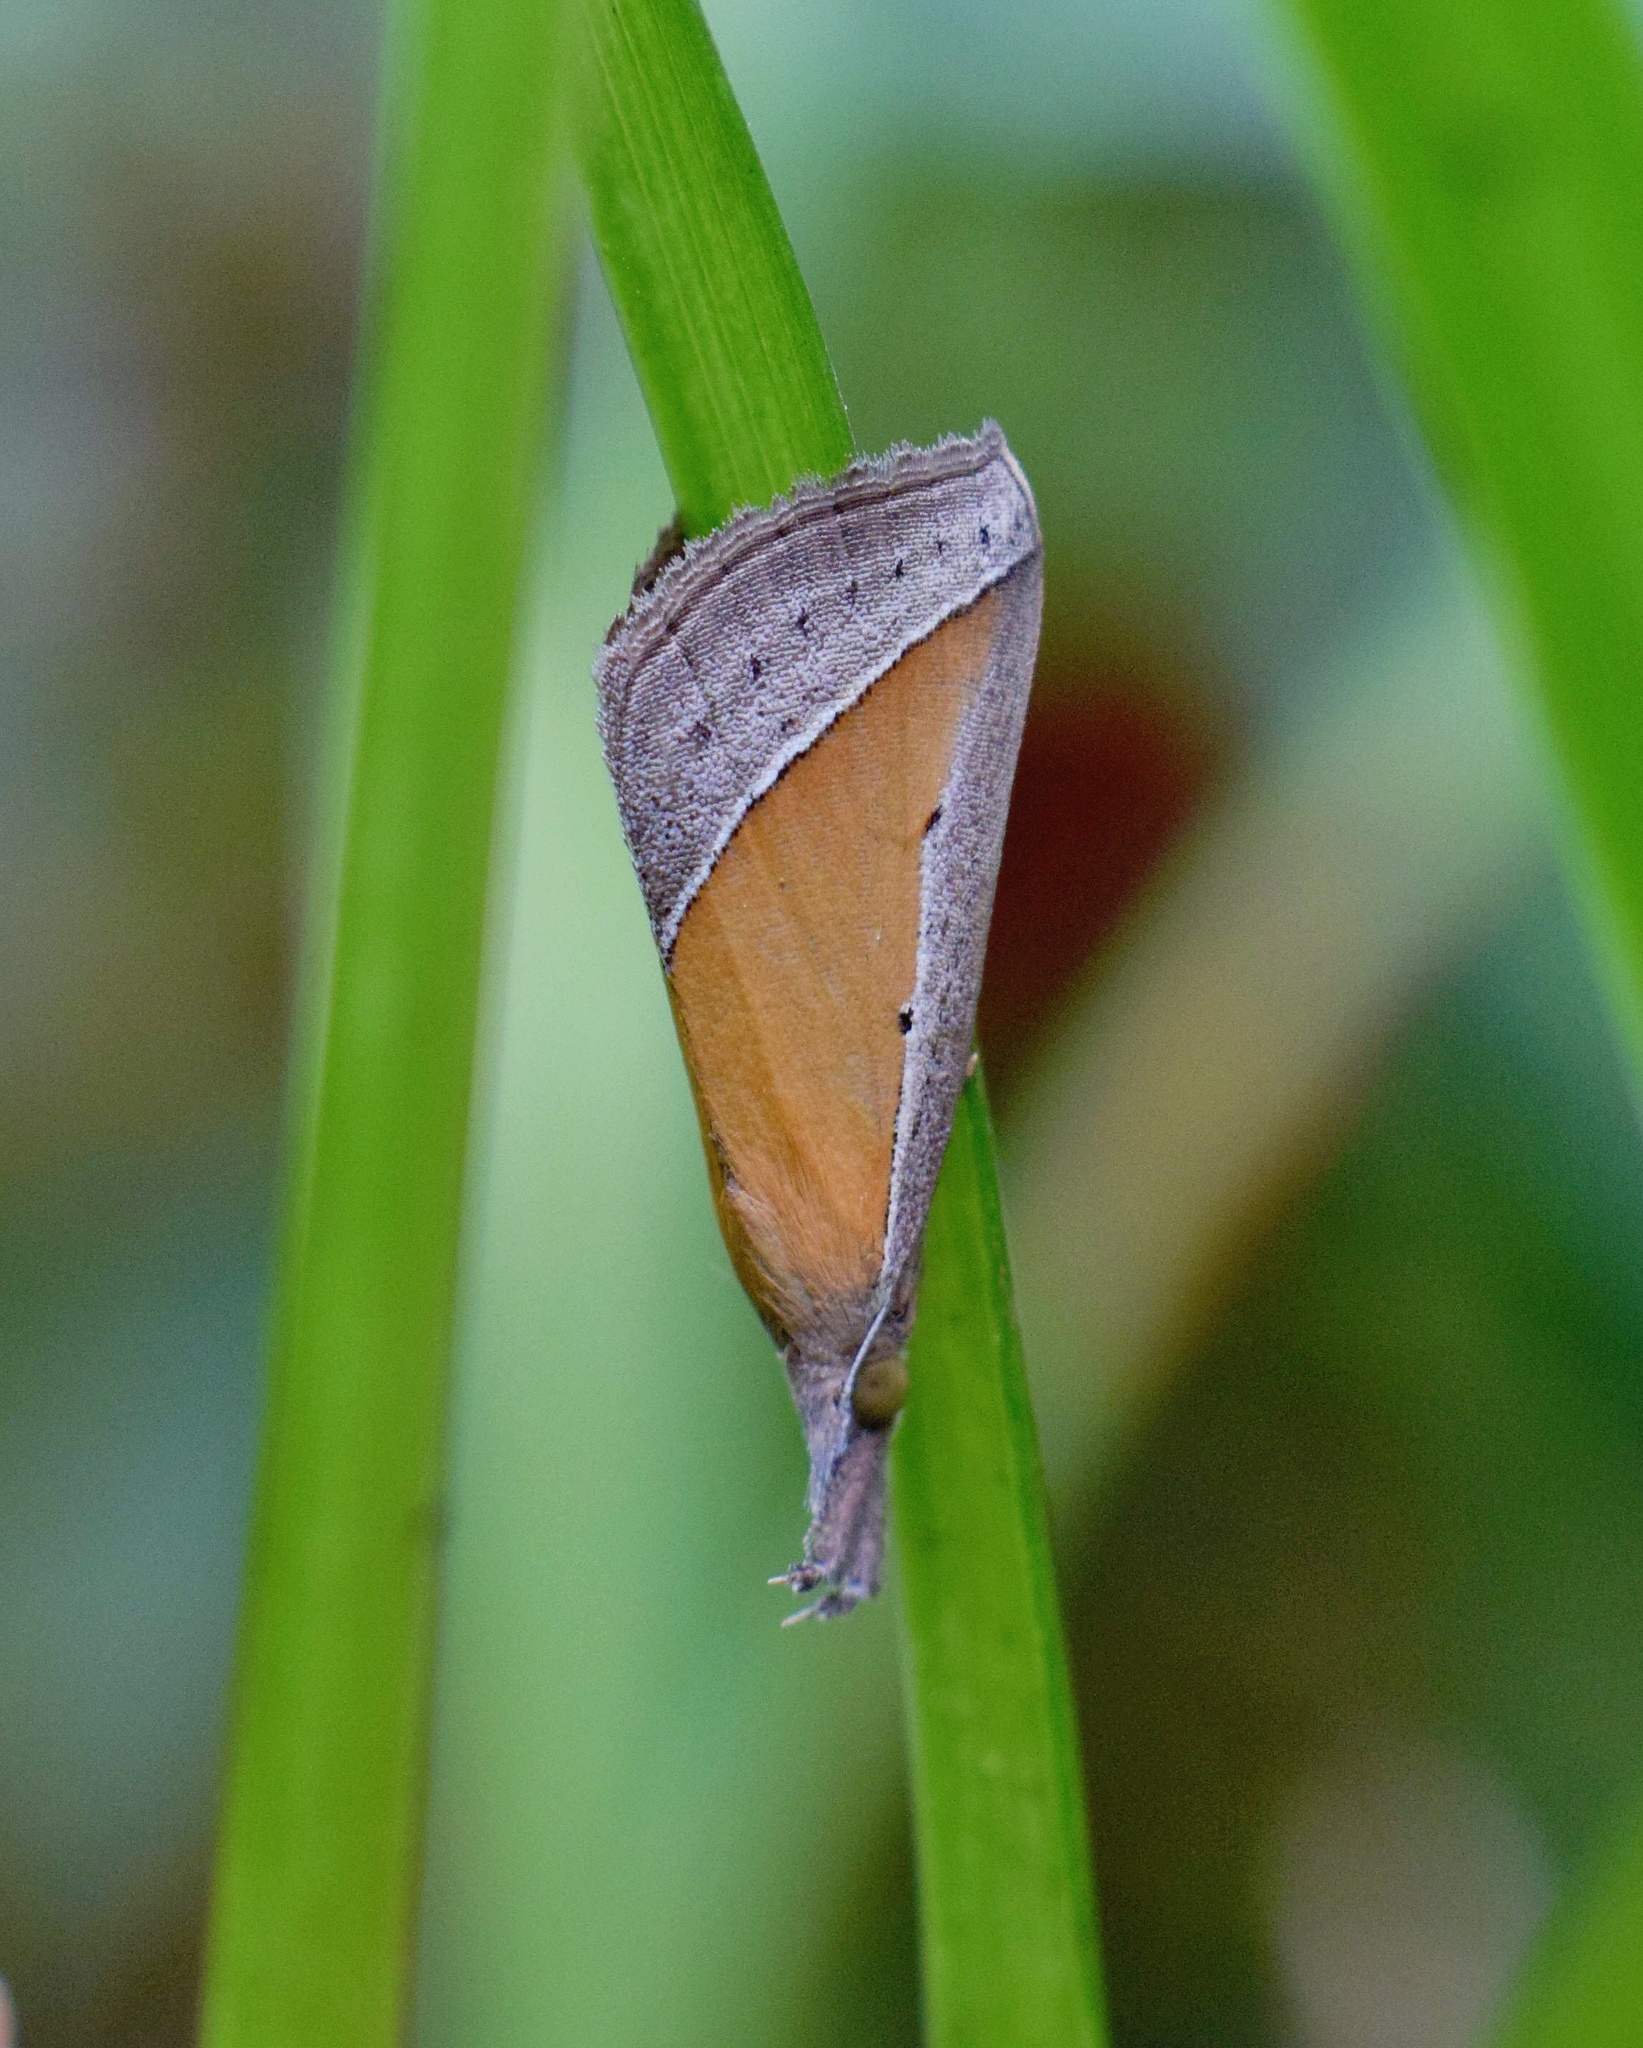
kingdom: Animalia
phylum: Arthropoda
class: Insecta
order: Lepidoptera
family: Erebidae
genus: Hypena
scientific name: Hypena conscitalis
